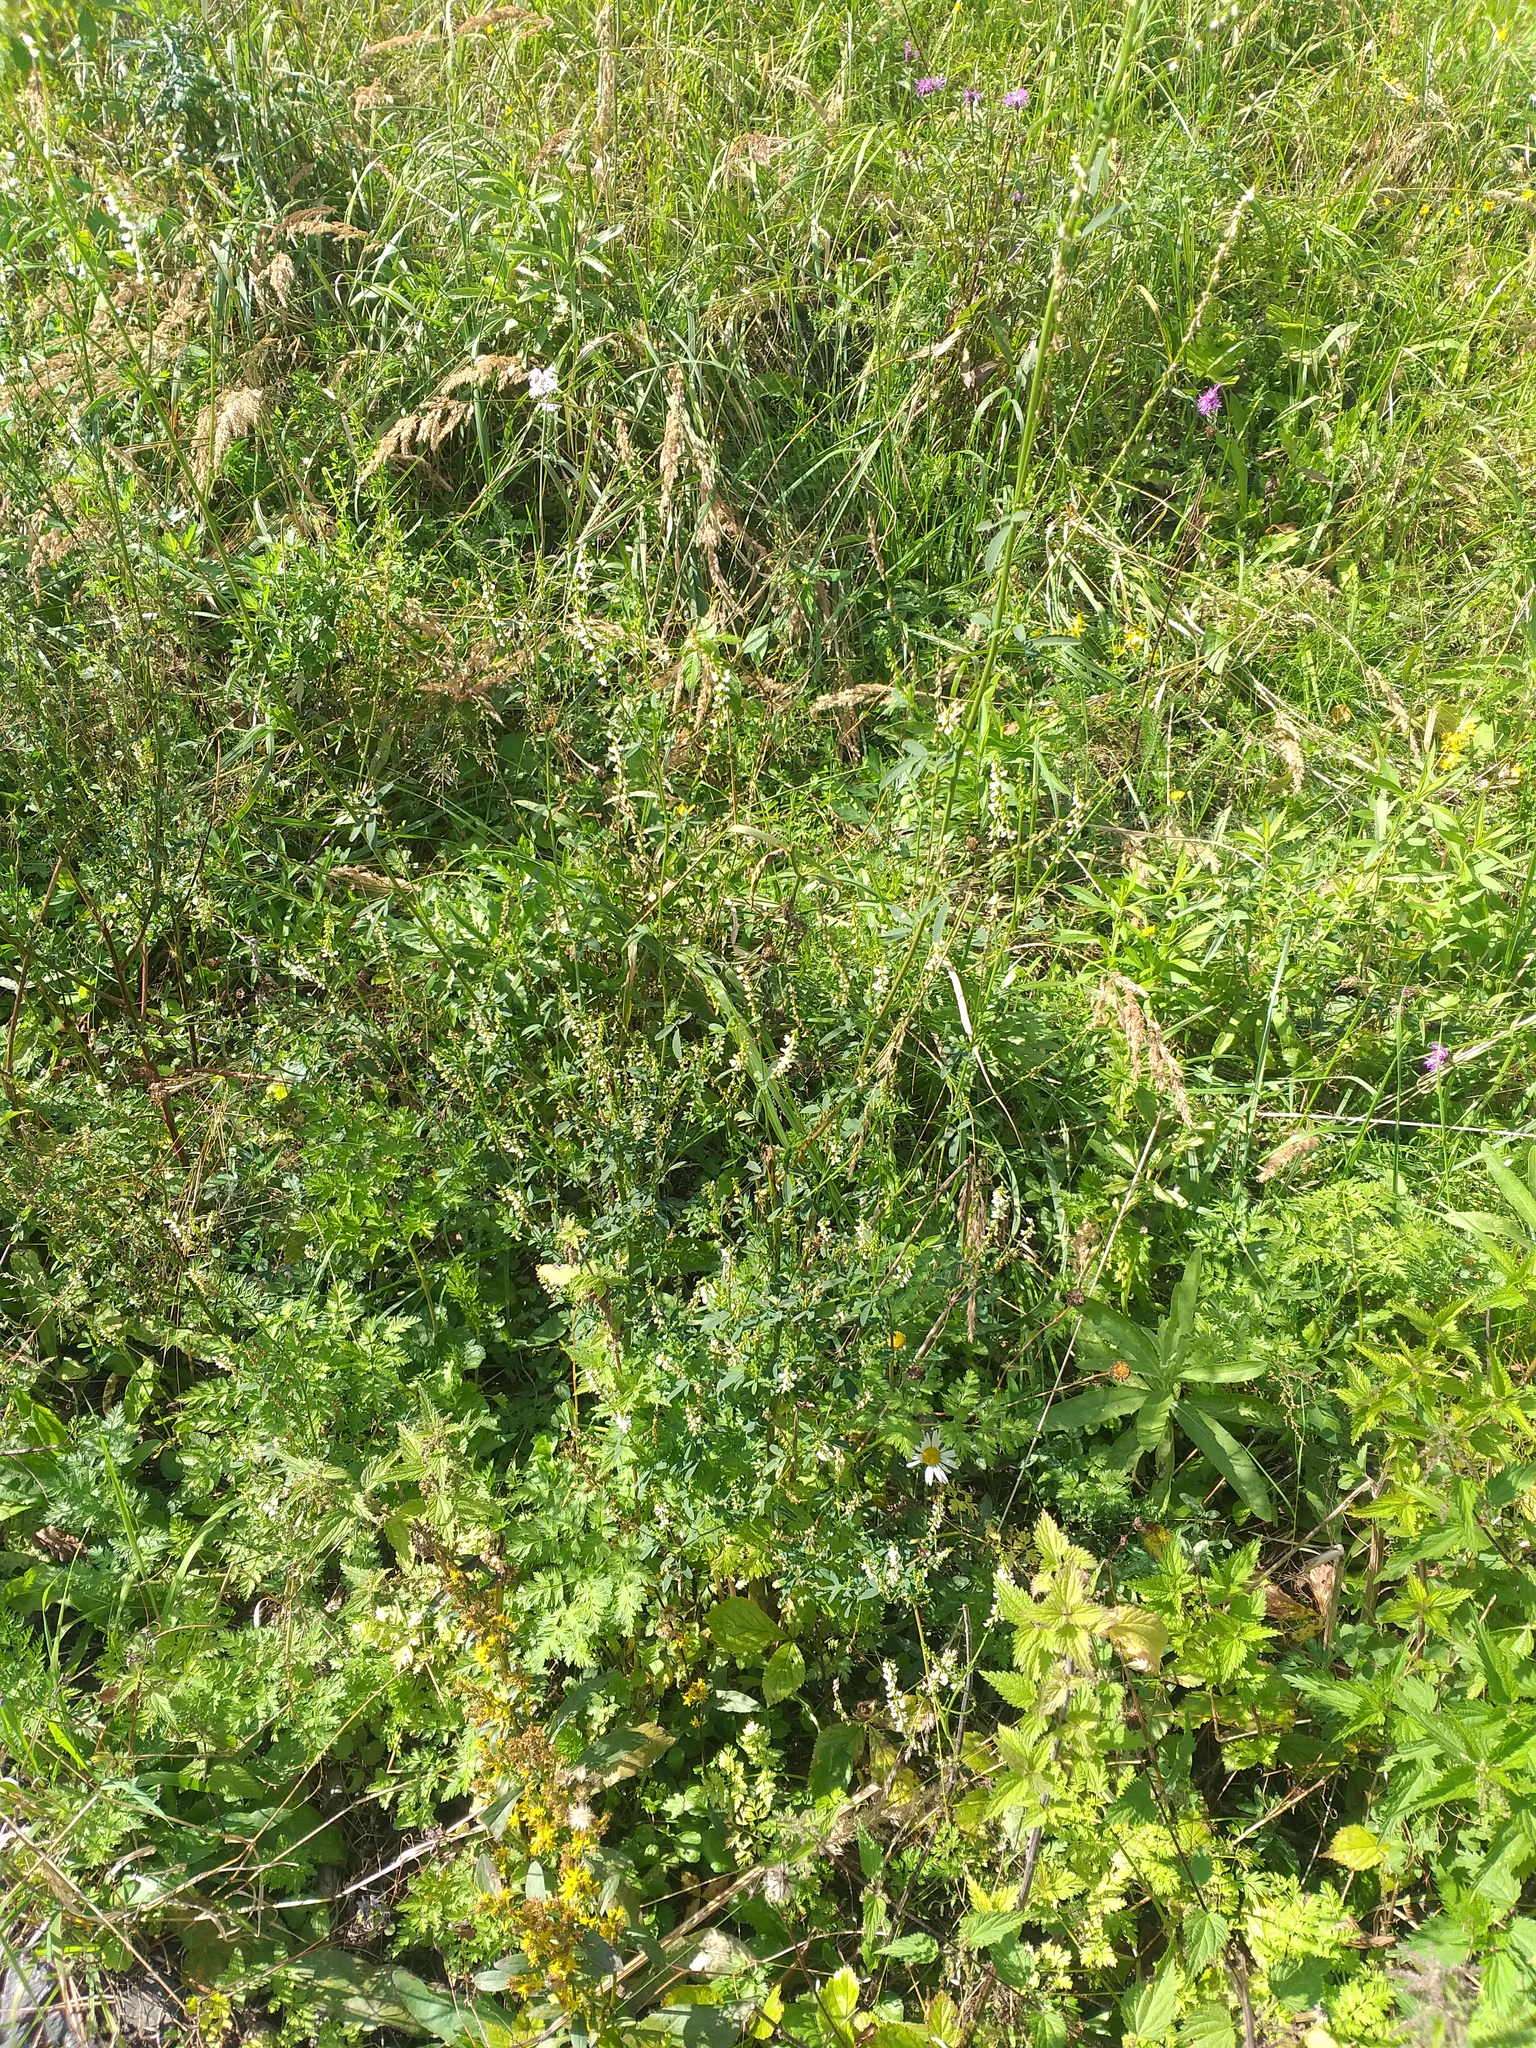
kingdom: Plantae
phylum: Tracheophyta
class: Magnoliopsida
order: Fabales
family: Fabaceae
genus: Melilotus
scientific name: Melilotus albus
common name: White melilot
